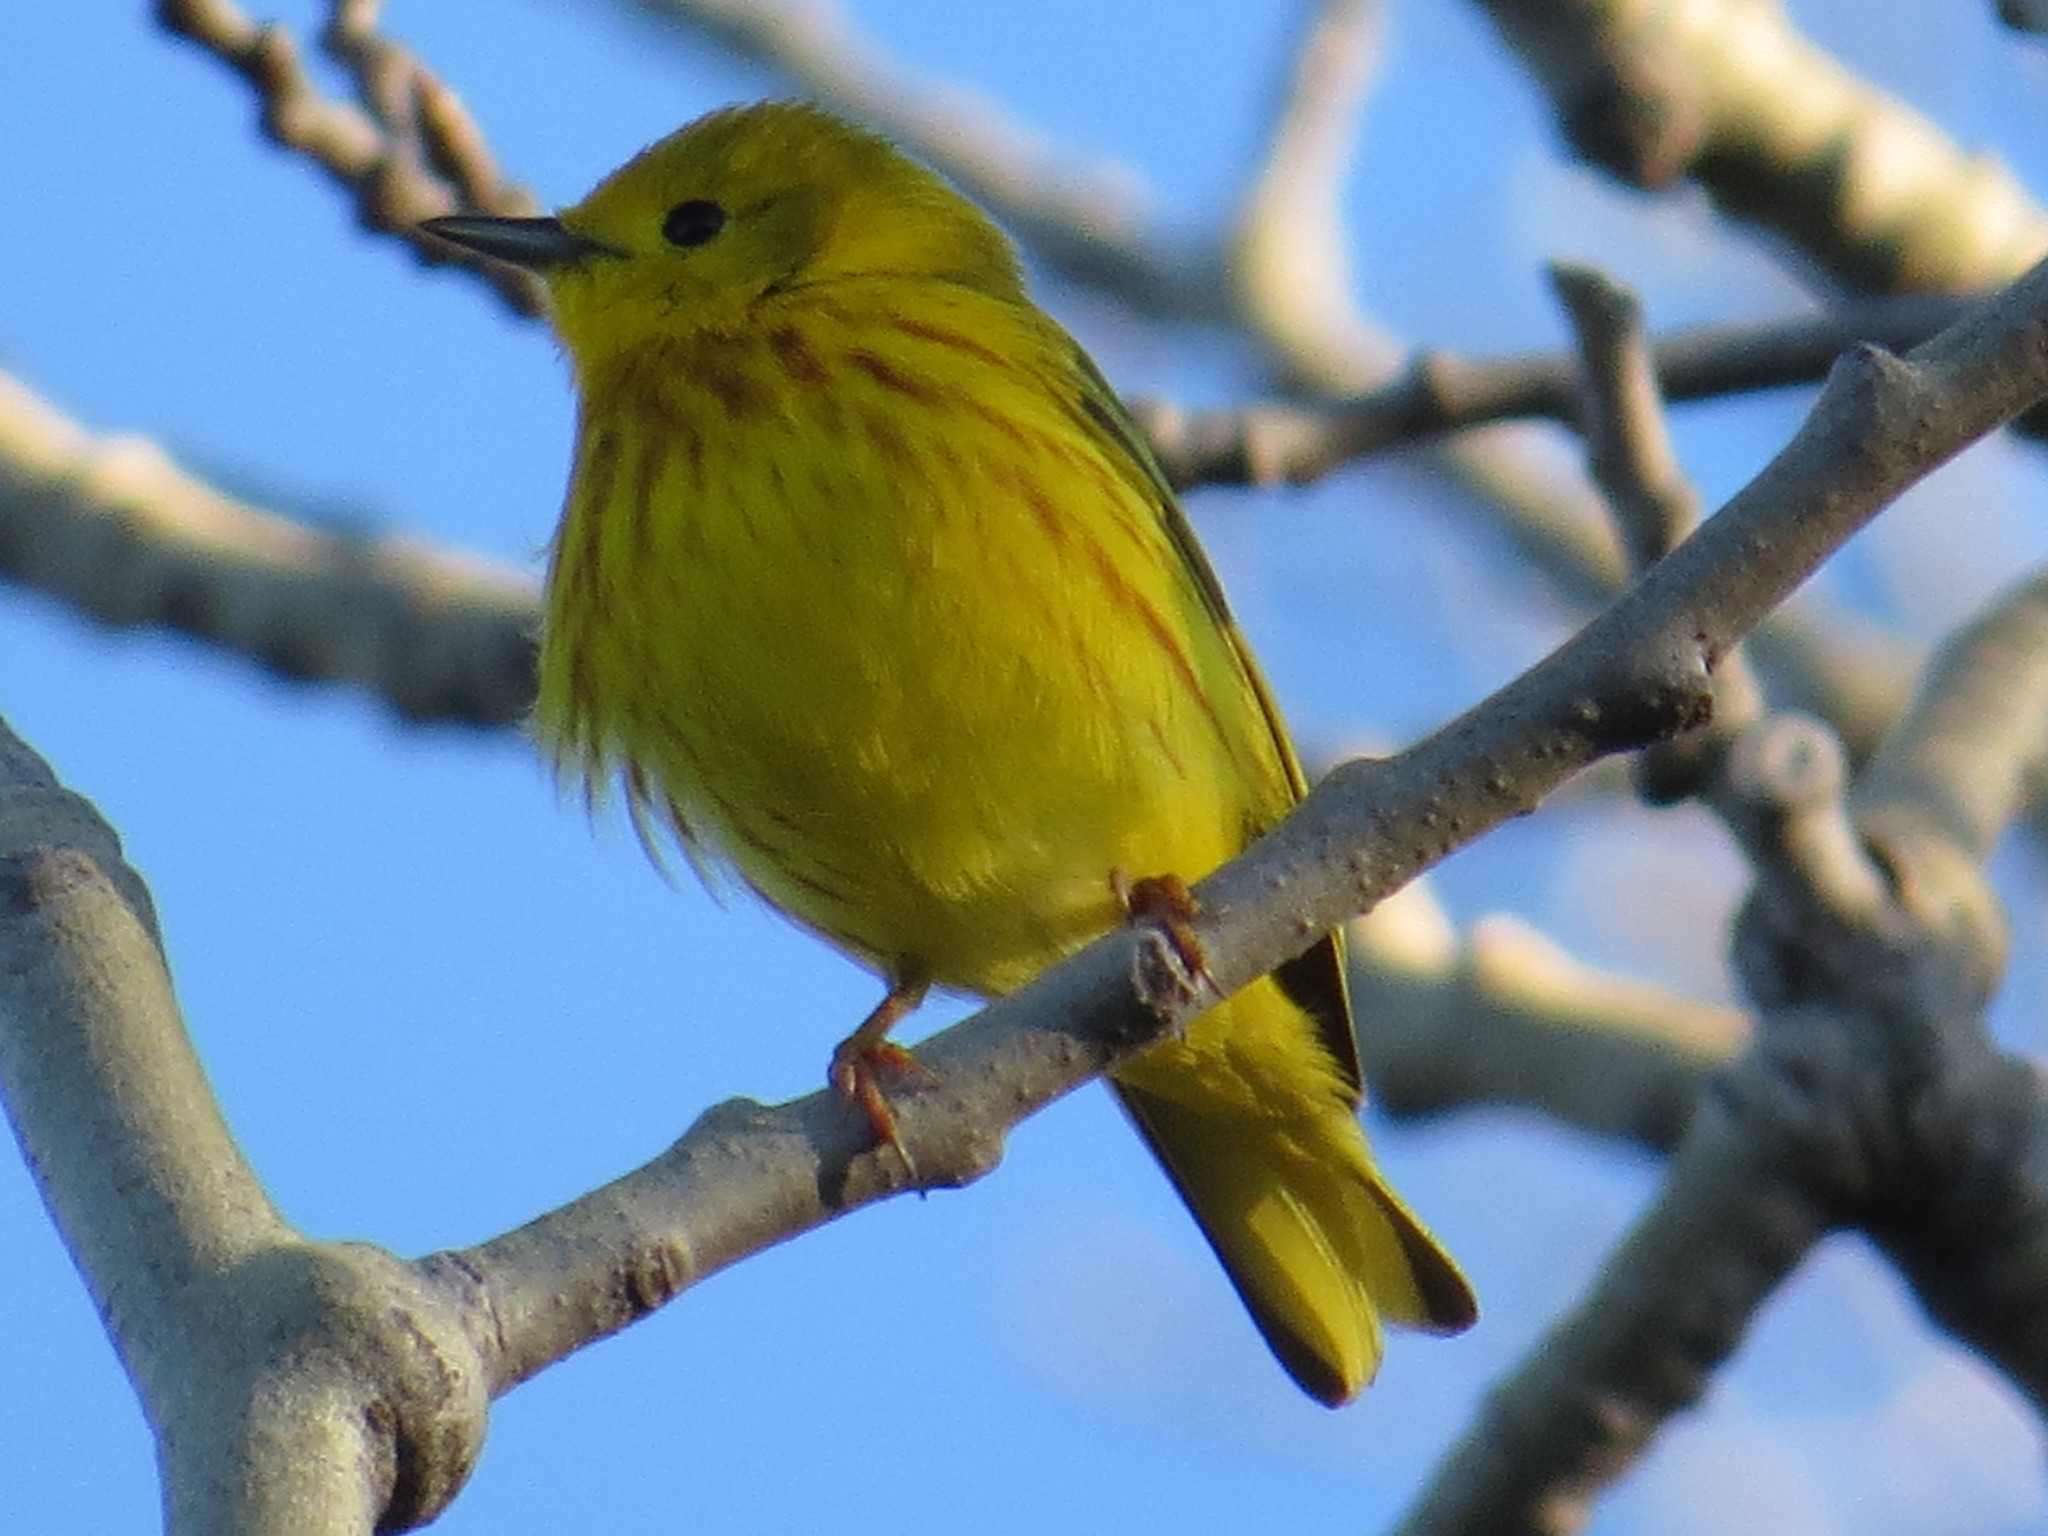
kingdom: Animalia
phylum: Chordata
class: Aves
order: Passeriformes
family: Parulidae
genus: Setophaga
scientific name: Setophaga petechia
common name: Yellow warbler
